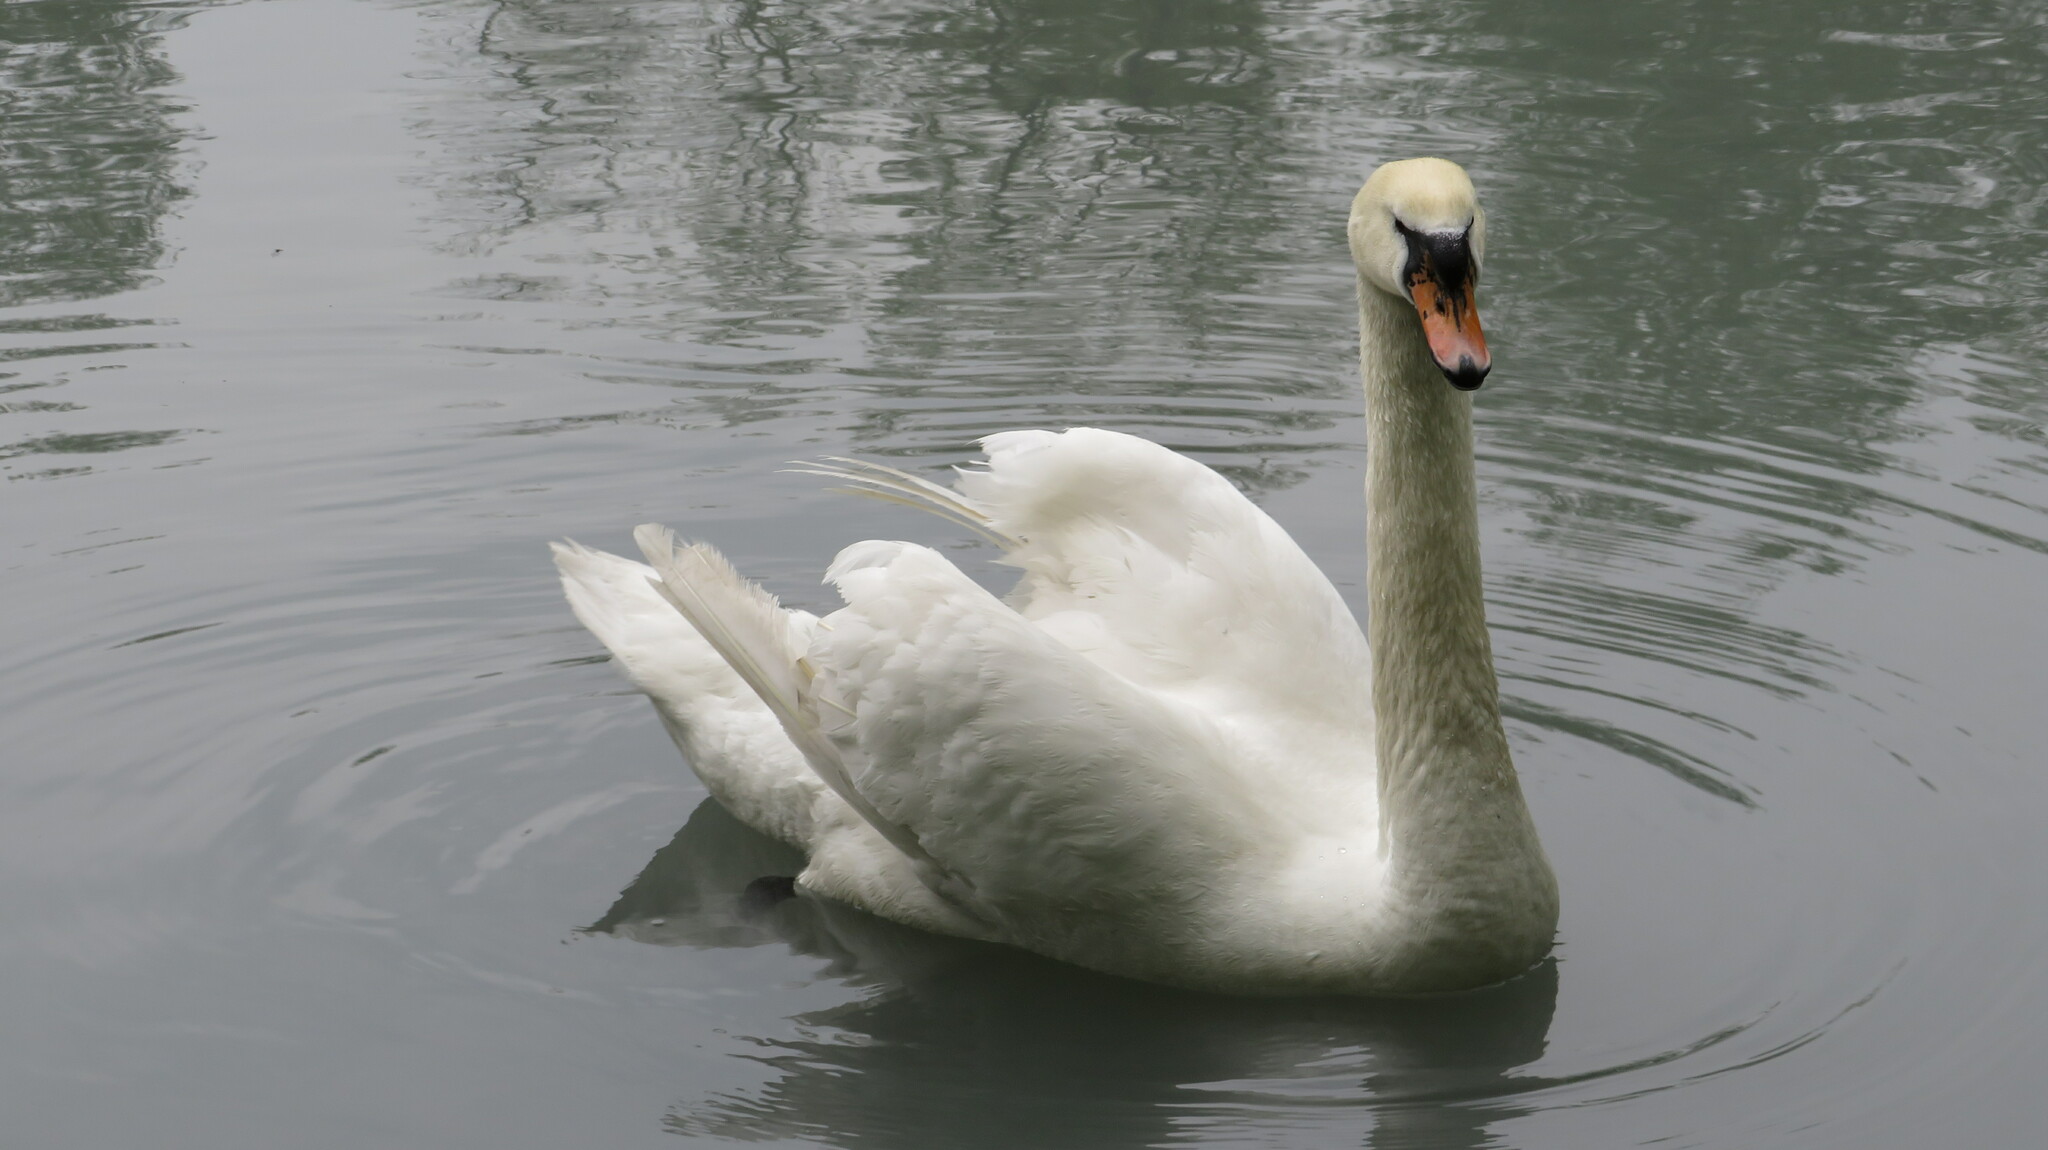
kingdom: Animalia
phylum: Chordata
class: Aves
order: Anseriformes
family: Anatidae
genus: Cygnus
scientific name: Cygnus olor
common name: Mute swan
